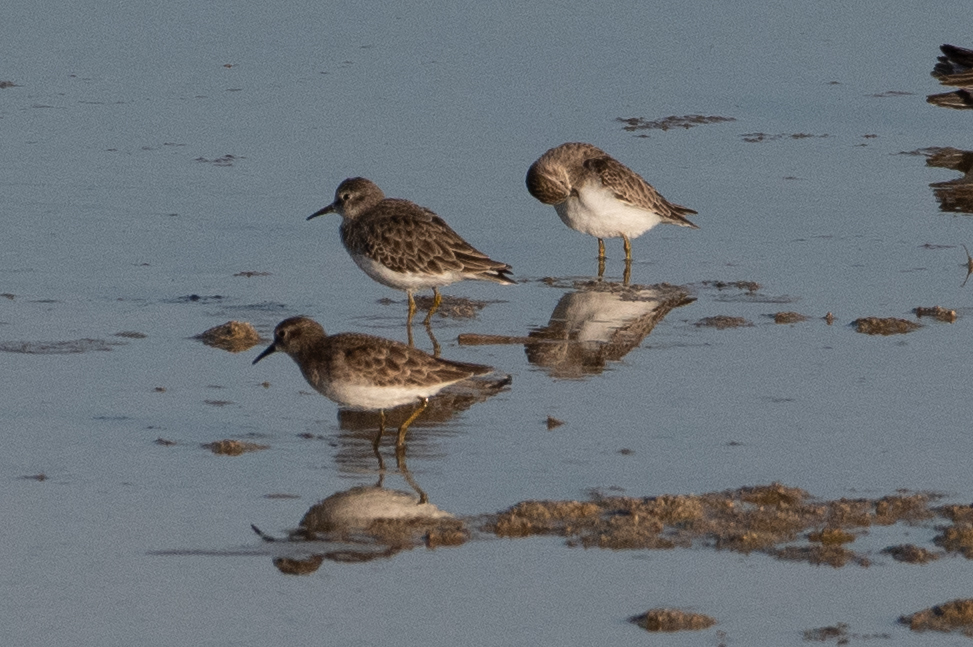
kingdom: Animalia
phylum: Chordata
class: Aves
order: Charadriiformes
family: Scolopacidae
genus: Calidris
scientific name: Calidris minutilla
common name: Least sandpiper
